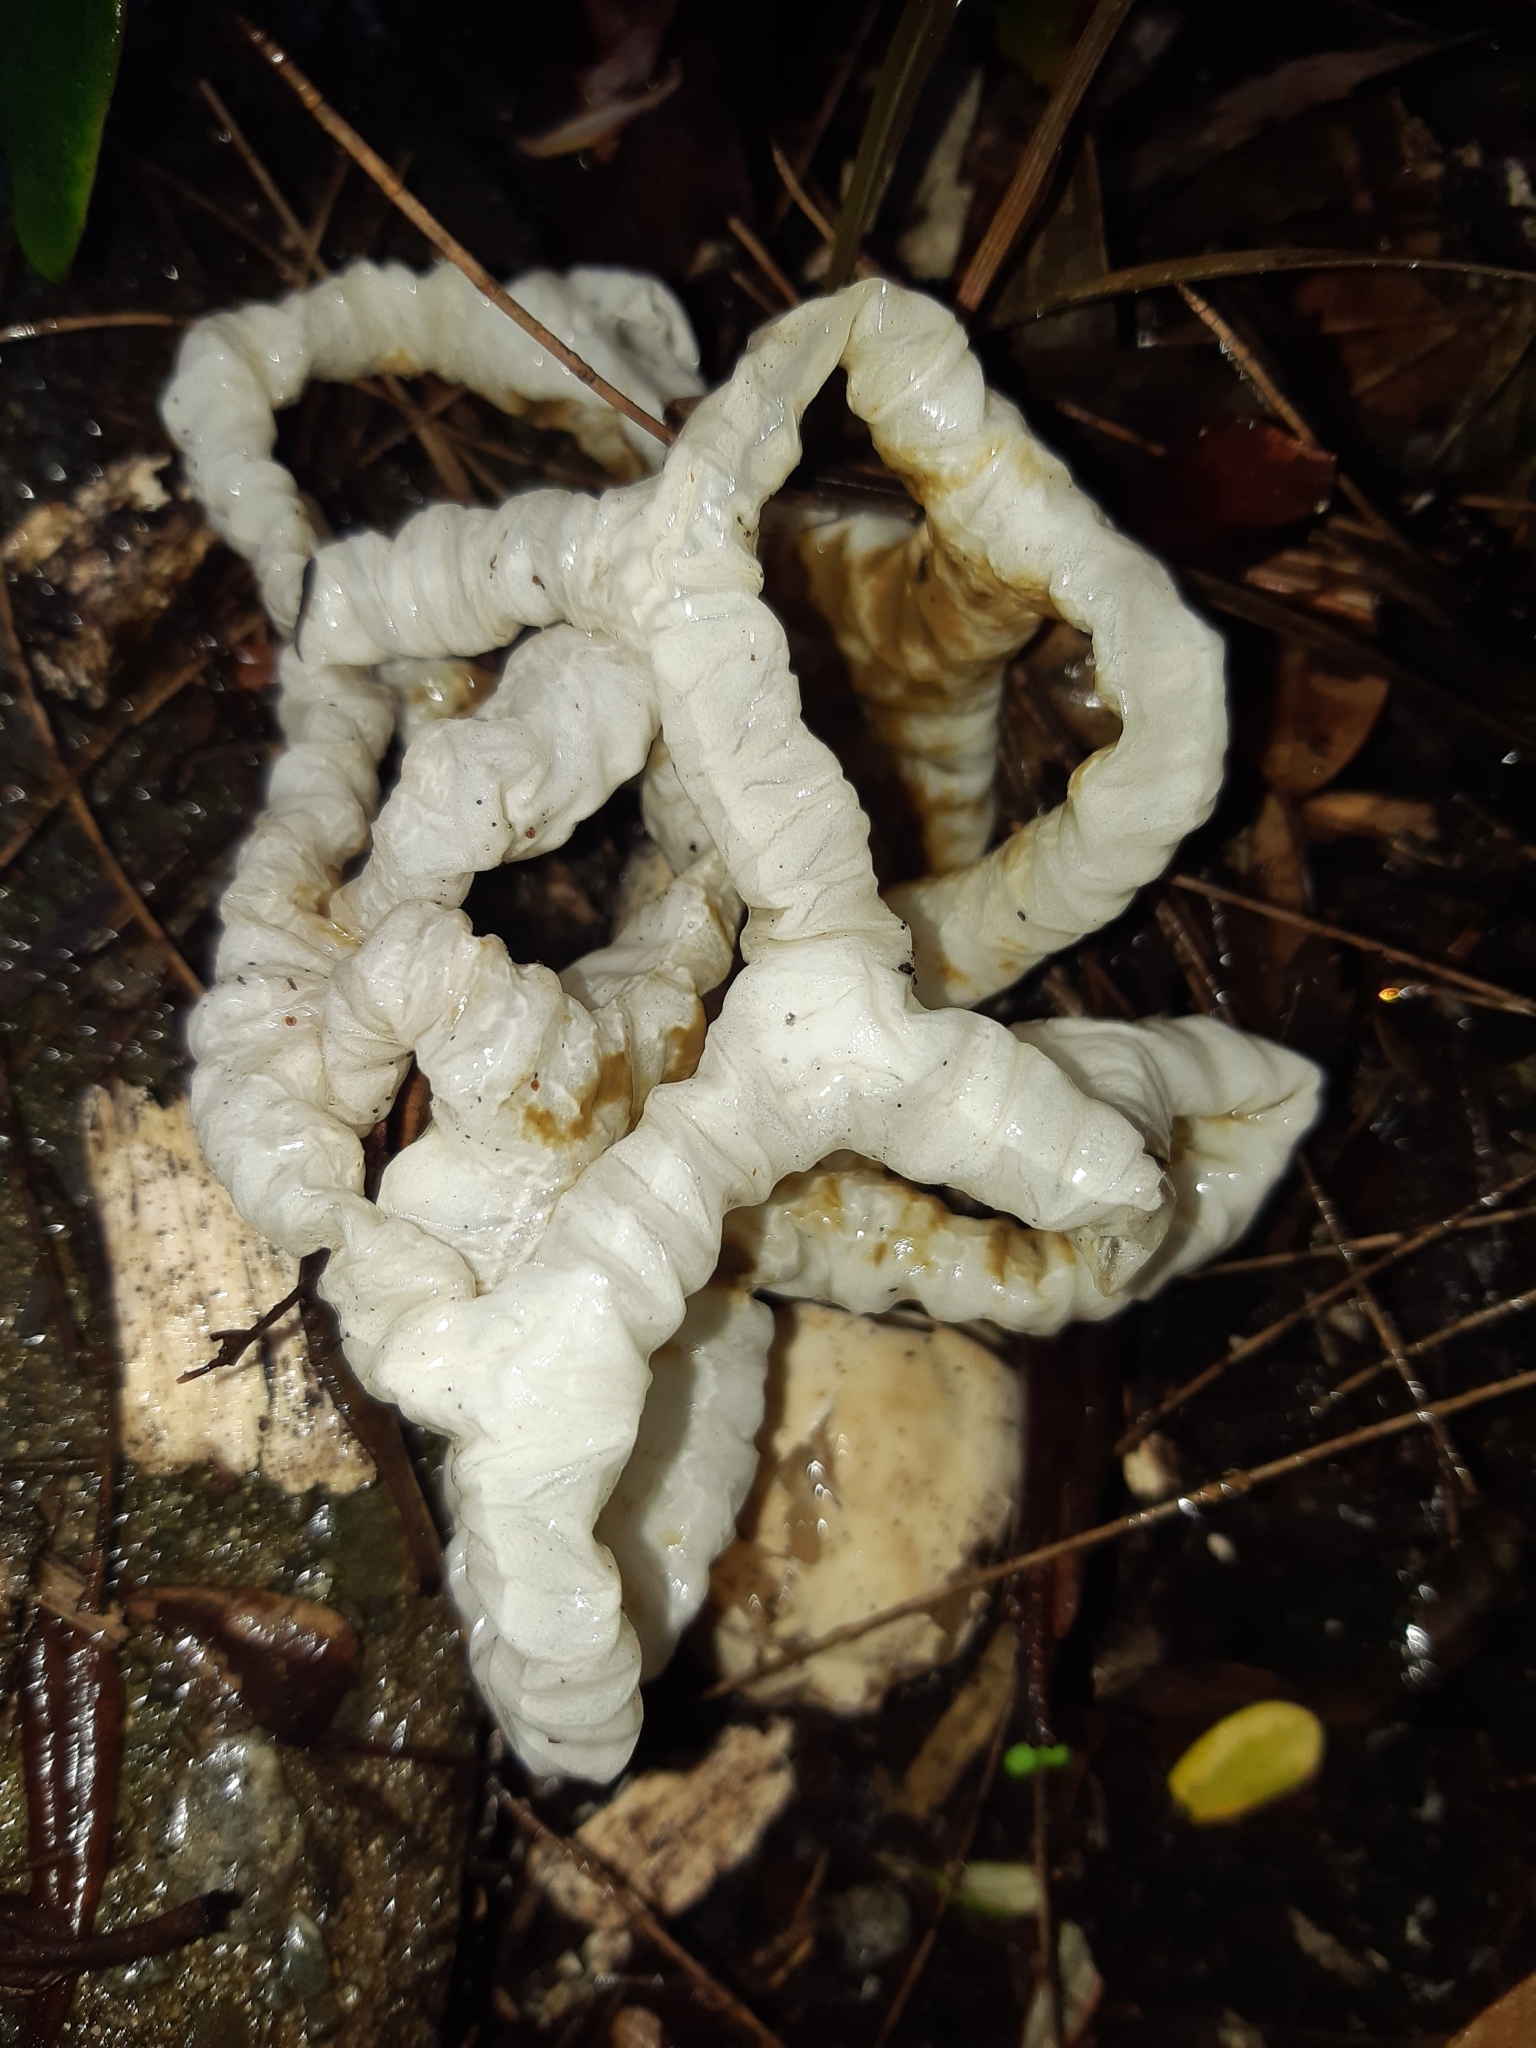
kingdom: Fungi
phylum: Basidiomycota
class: Agaricomycetes
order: Phallales
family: Phallaceae
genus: Ileodictyon
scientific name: Ileodictyon cibarium
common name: Basket fungus
